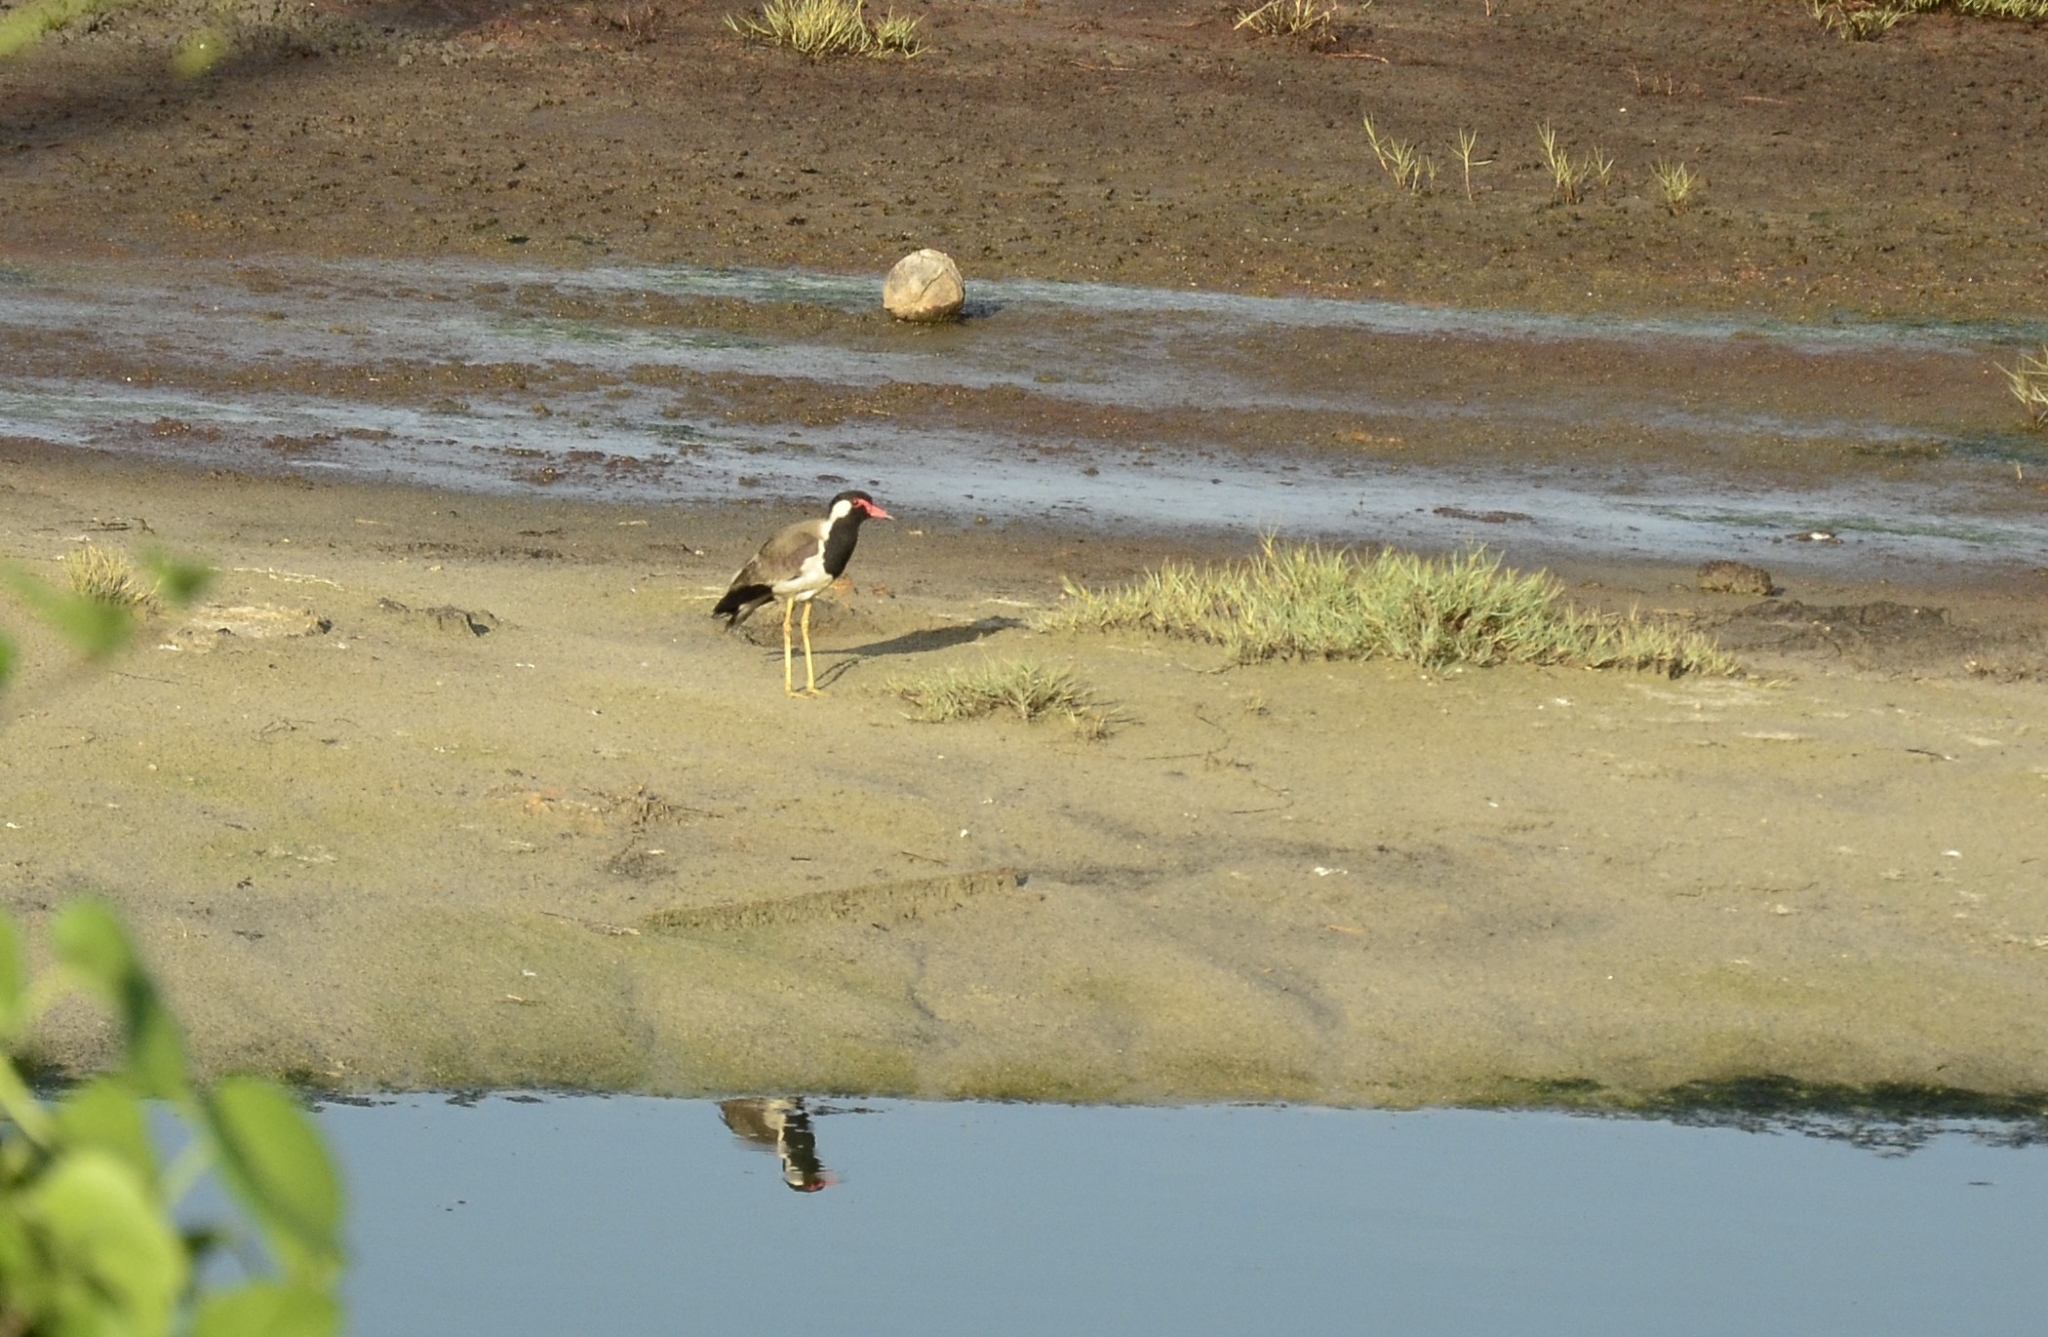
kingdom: Animalia
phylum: Chordata
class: Aves
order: Charadriiformes
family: Charadriidae
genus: Vanellus
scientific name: Vanellus indicus
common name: Red-wattled lapwing
